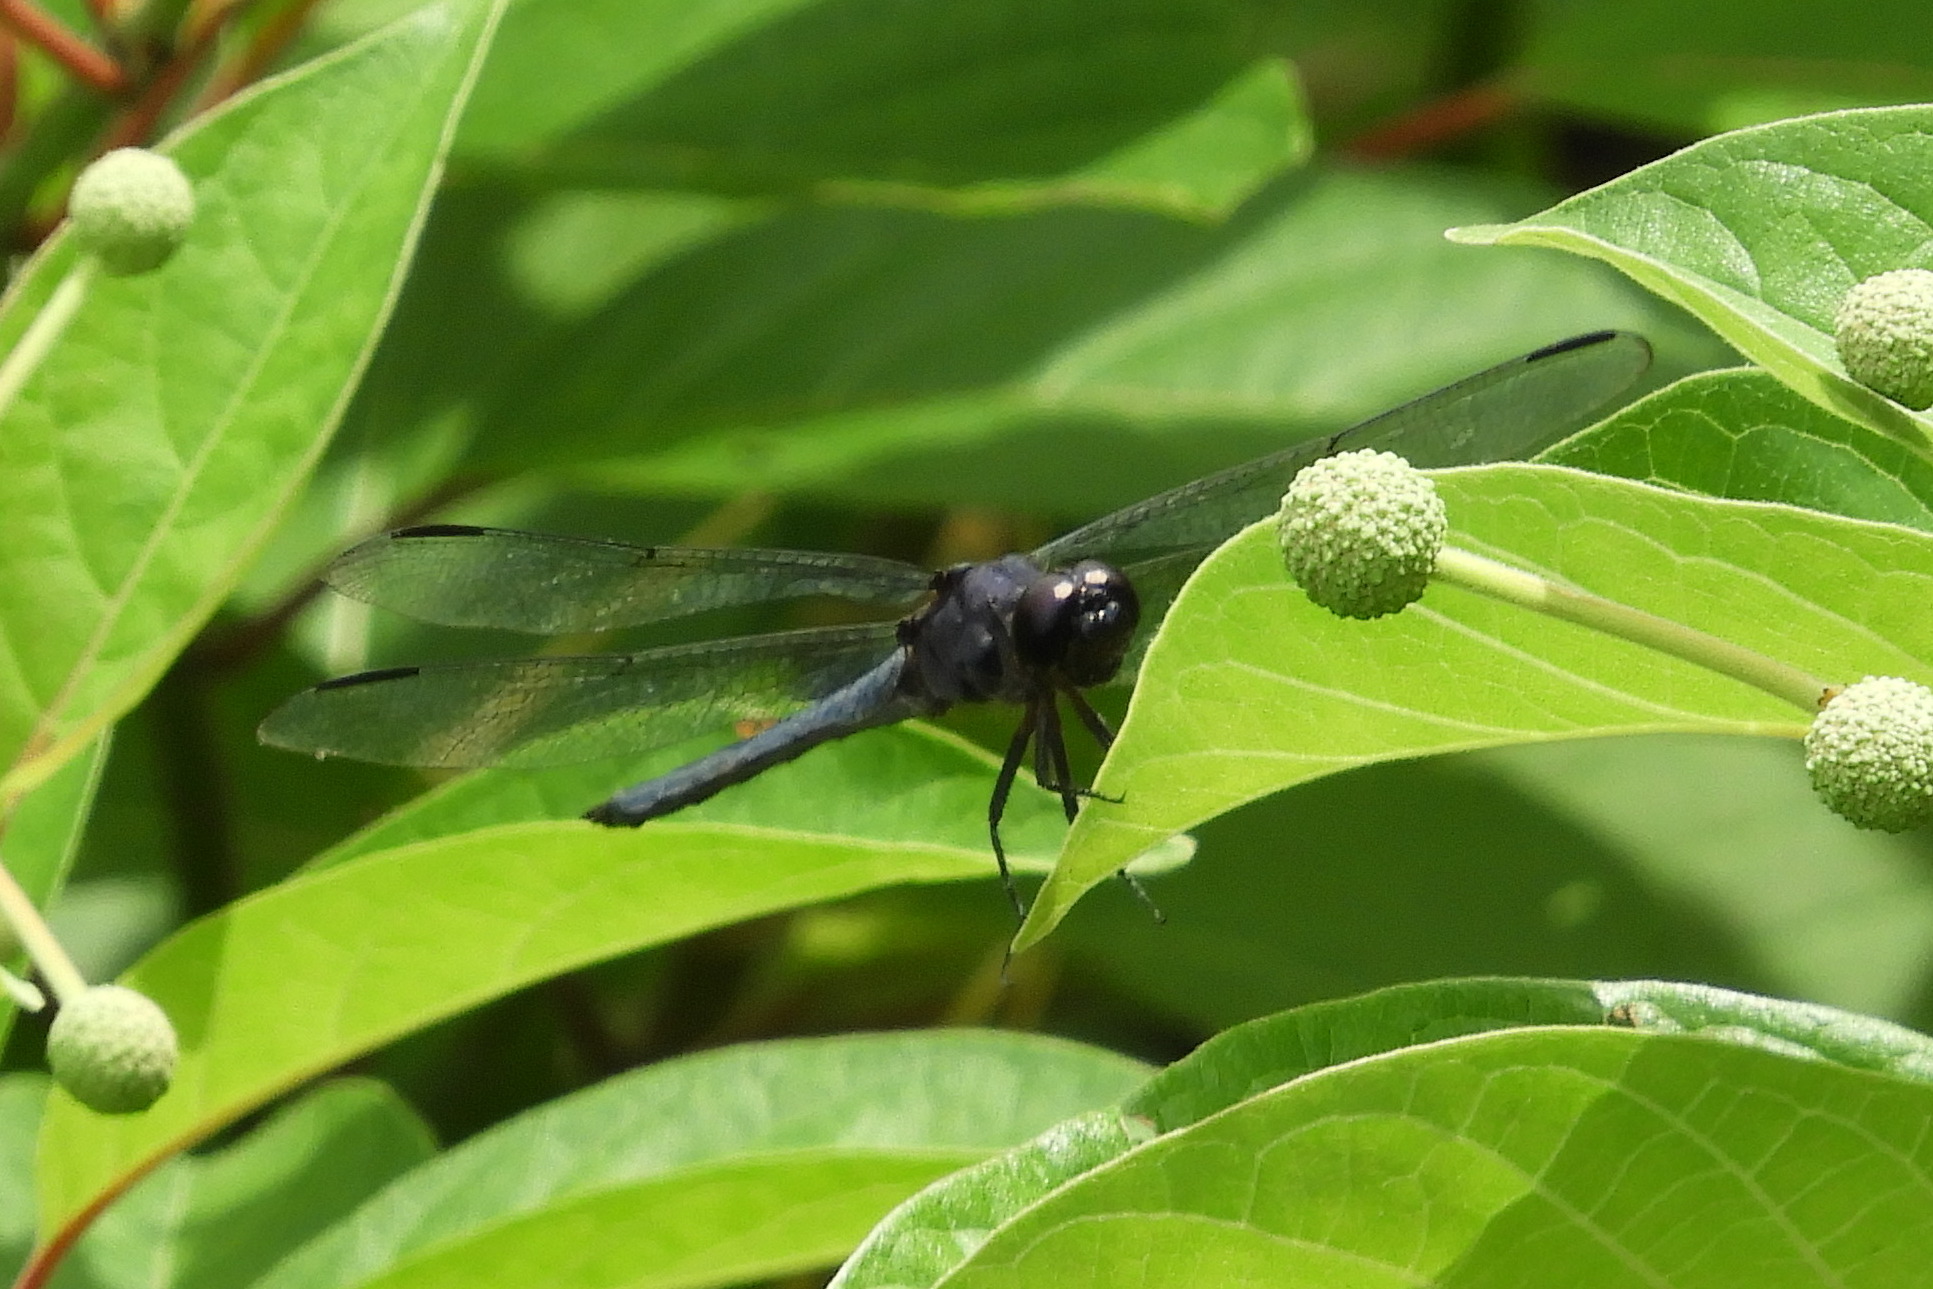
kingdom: Animalia
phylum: Arthropoda
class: Insecta
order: Odonata
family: Libellulidae
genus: Libellula
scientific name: Libellula incesta
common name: Slaty skimmer
